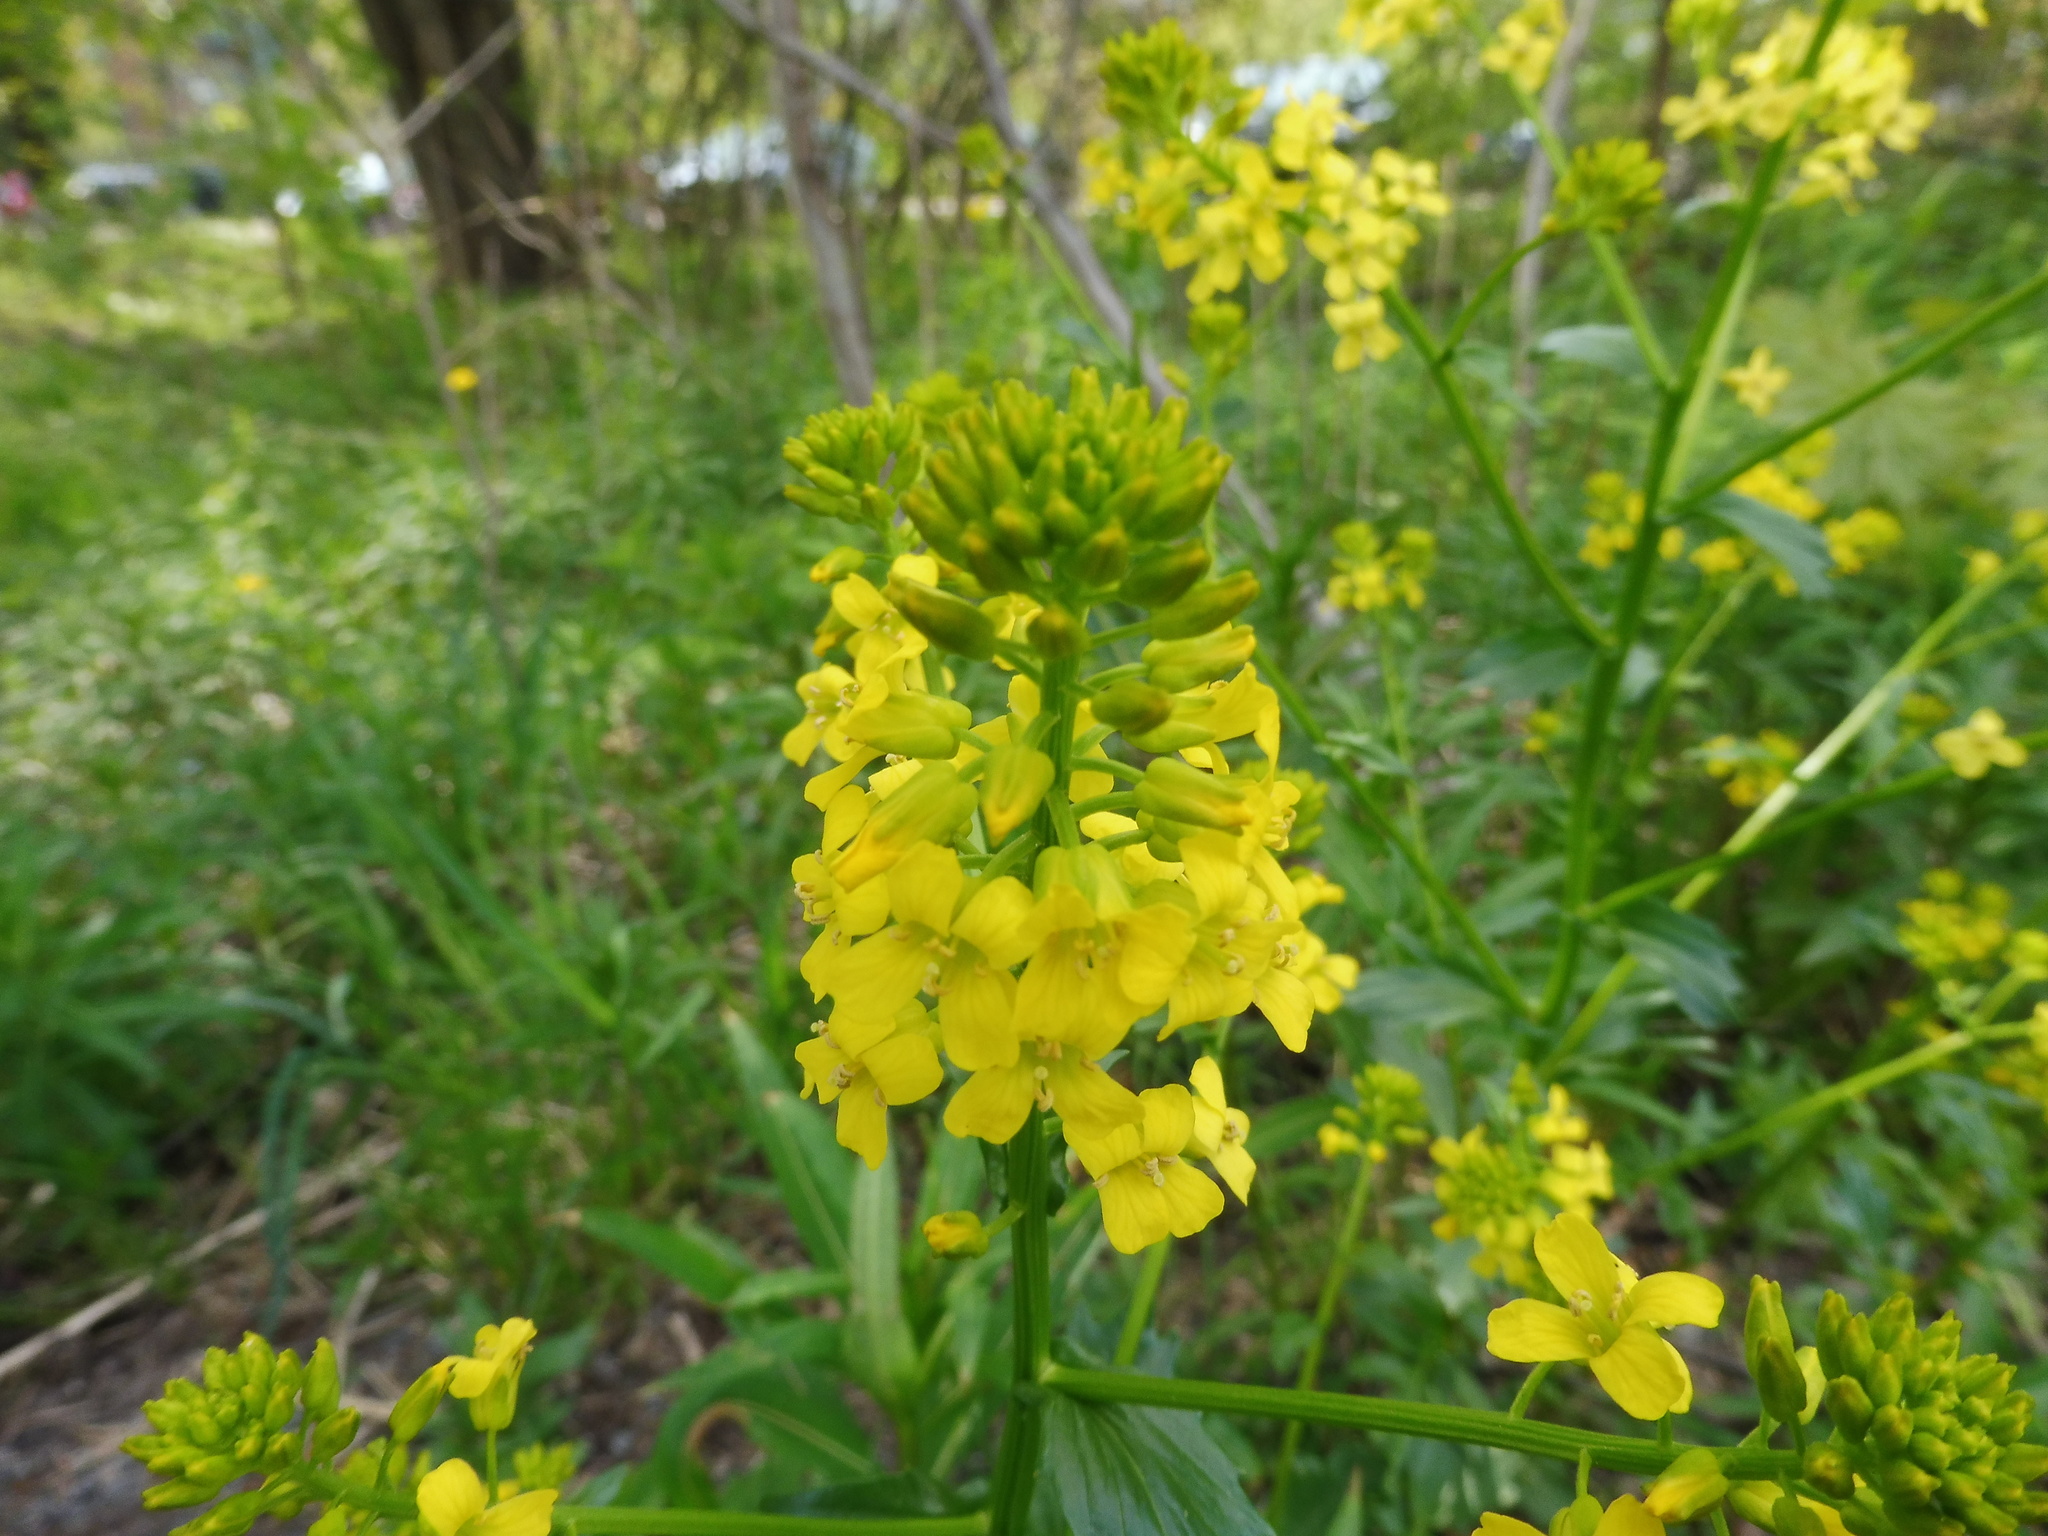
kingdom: Plantae
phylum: Tracheophyta
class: Magnoliopsida
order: Brassicales
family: Brassicaceae
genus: Barbarea
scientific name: Barbarea vulgaris
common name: Cressy-greens
